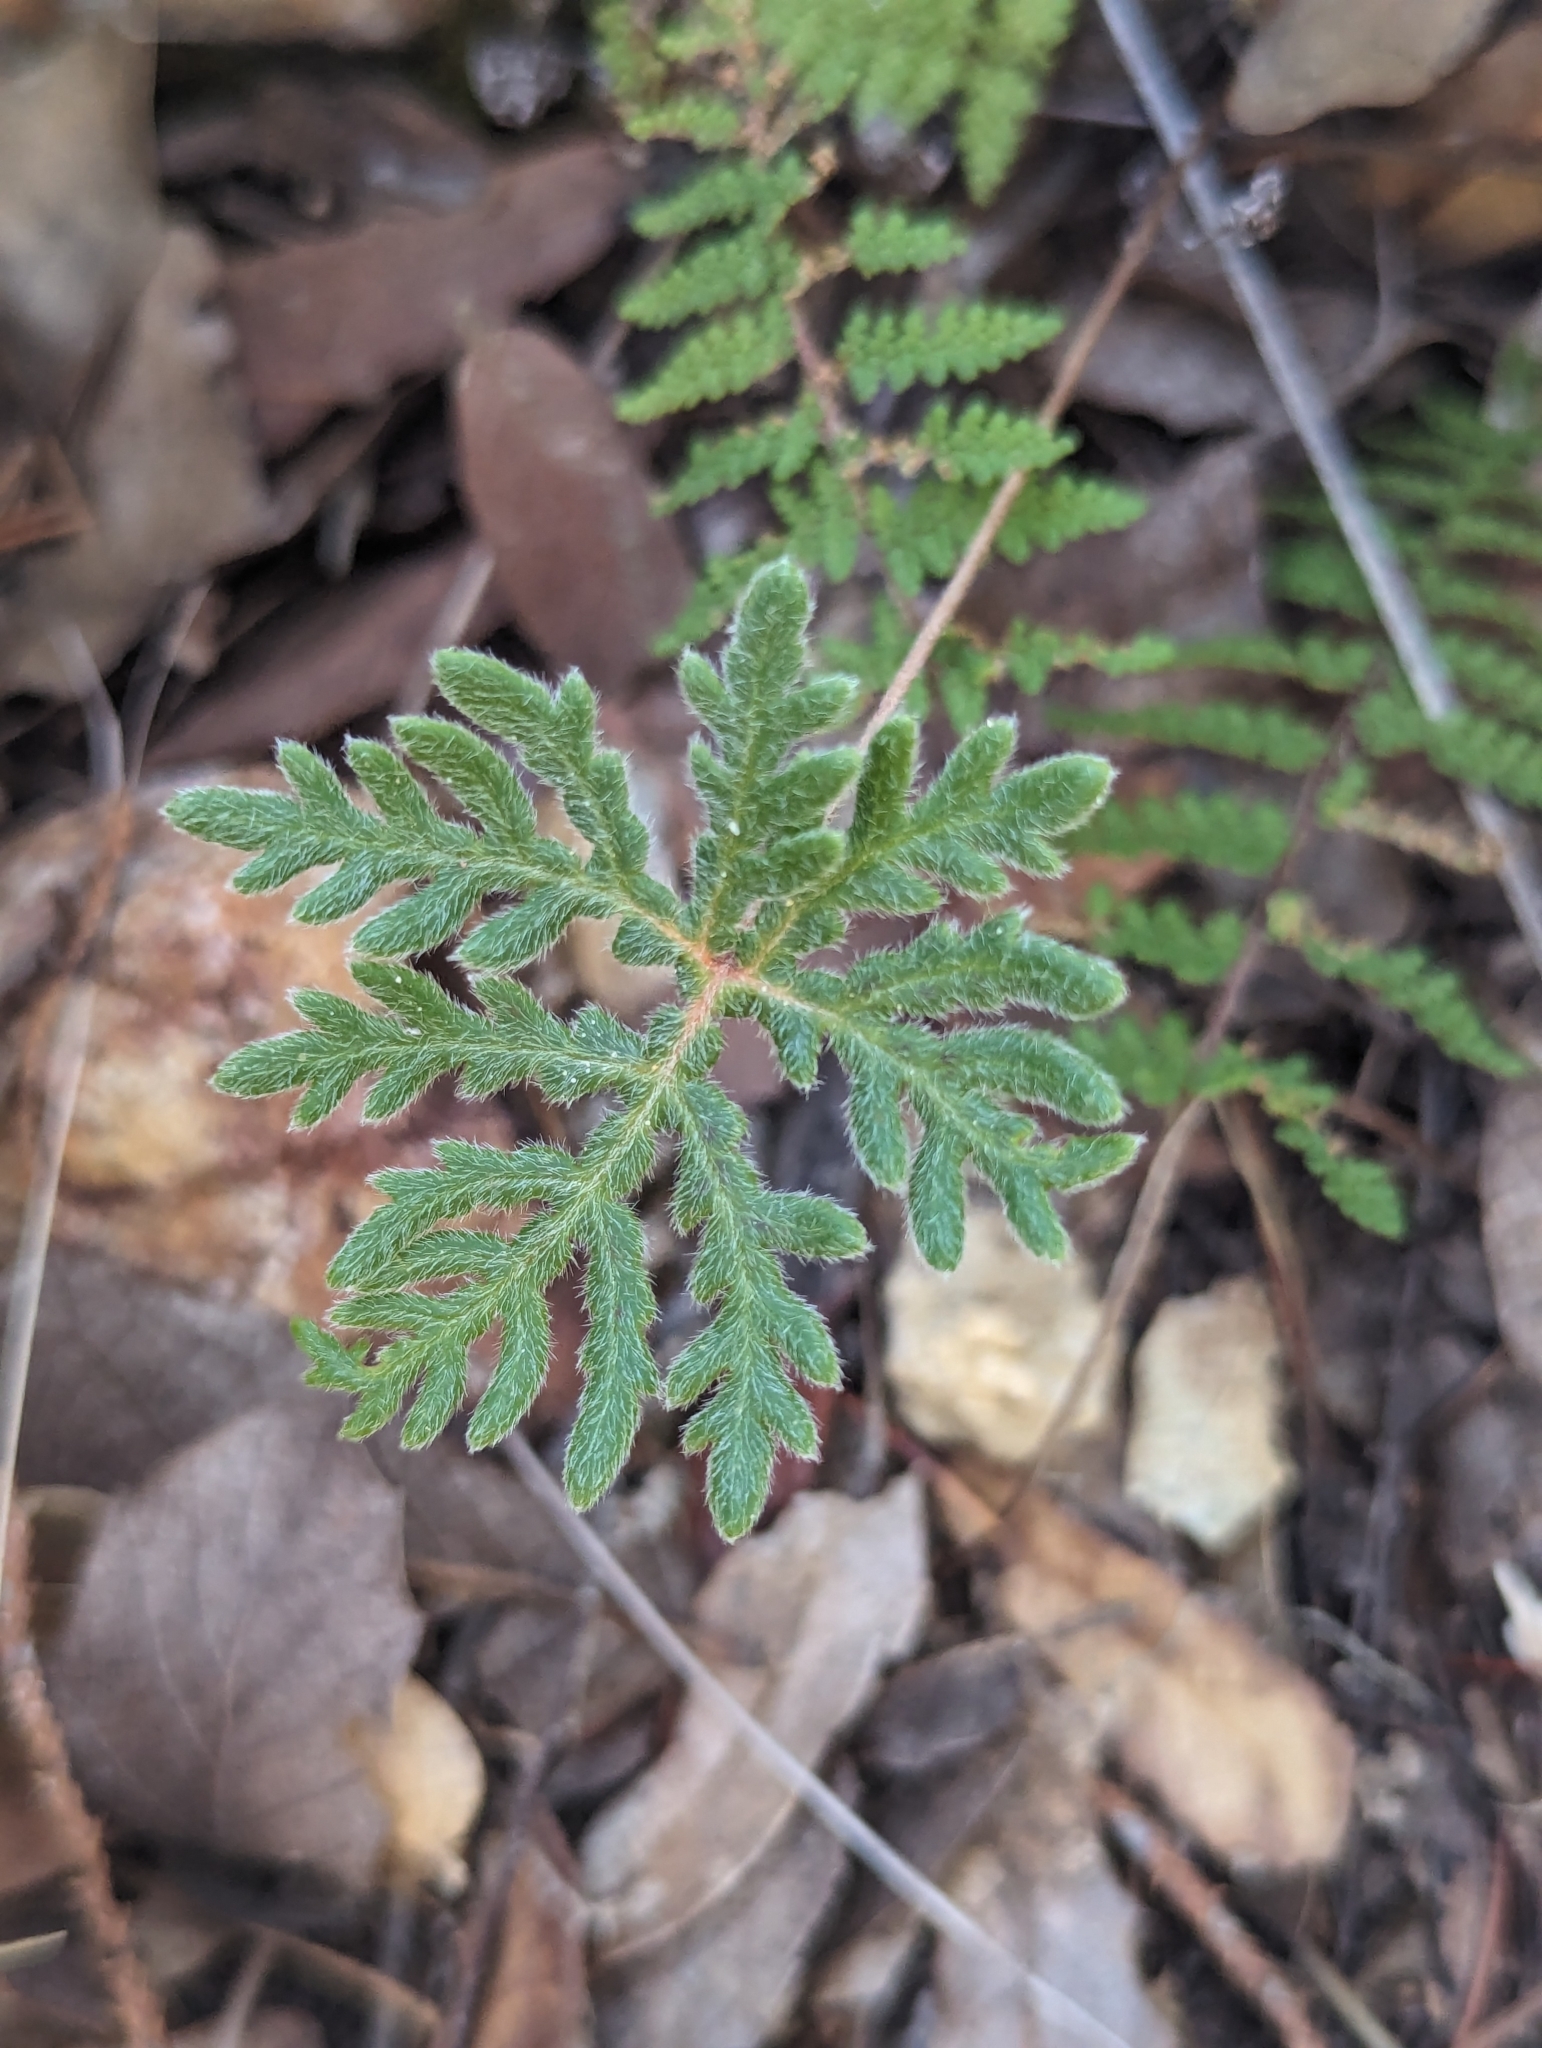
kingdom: Plantae
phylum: Tracheophyta
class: Polypodiopsida
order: Polypodiales
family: Pteridaceae
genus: Bommeria
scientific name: Bommeria hispida
